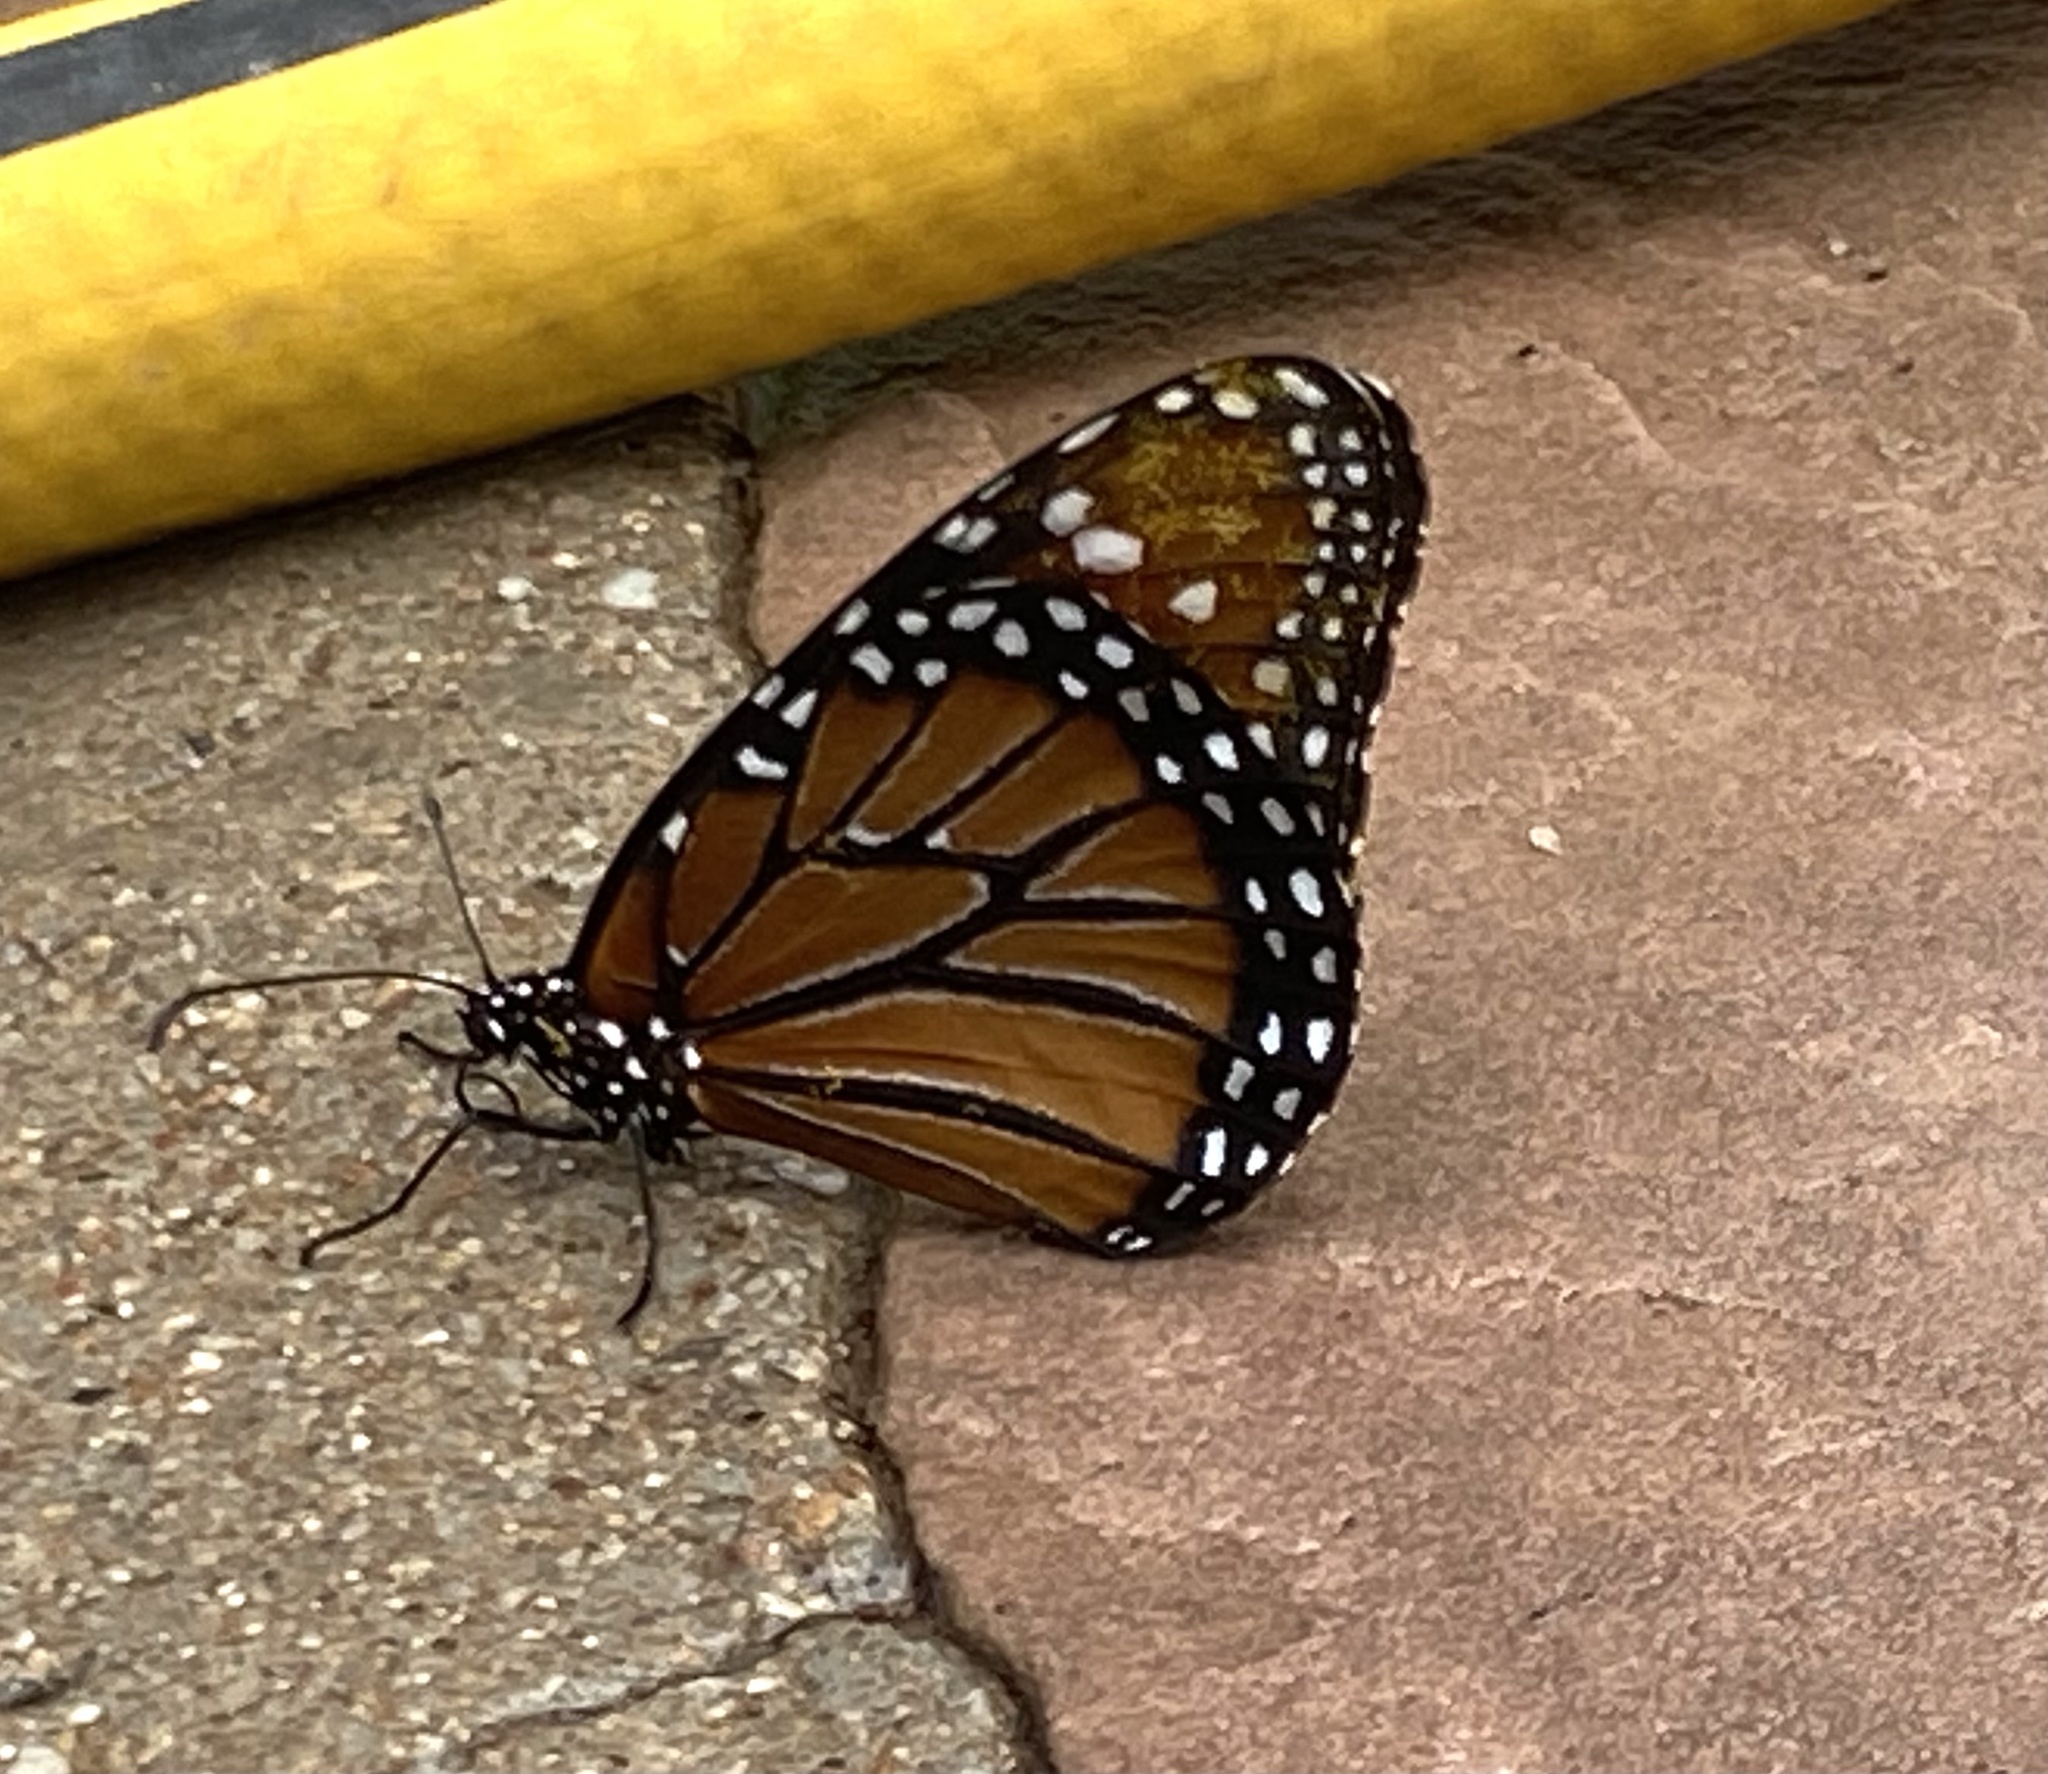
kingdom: Animalia
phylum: Arthropoda
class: Insecta
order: Lepidoptera
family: Nymphalidae
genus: Danaus
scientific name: Danaus gilippus
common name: Queen
